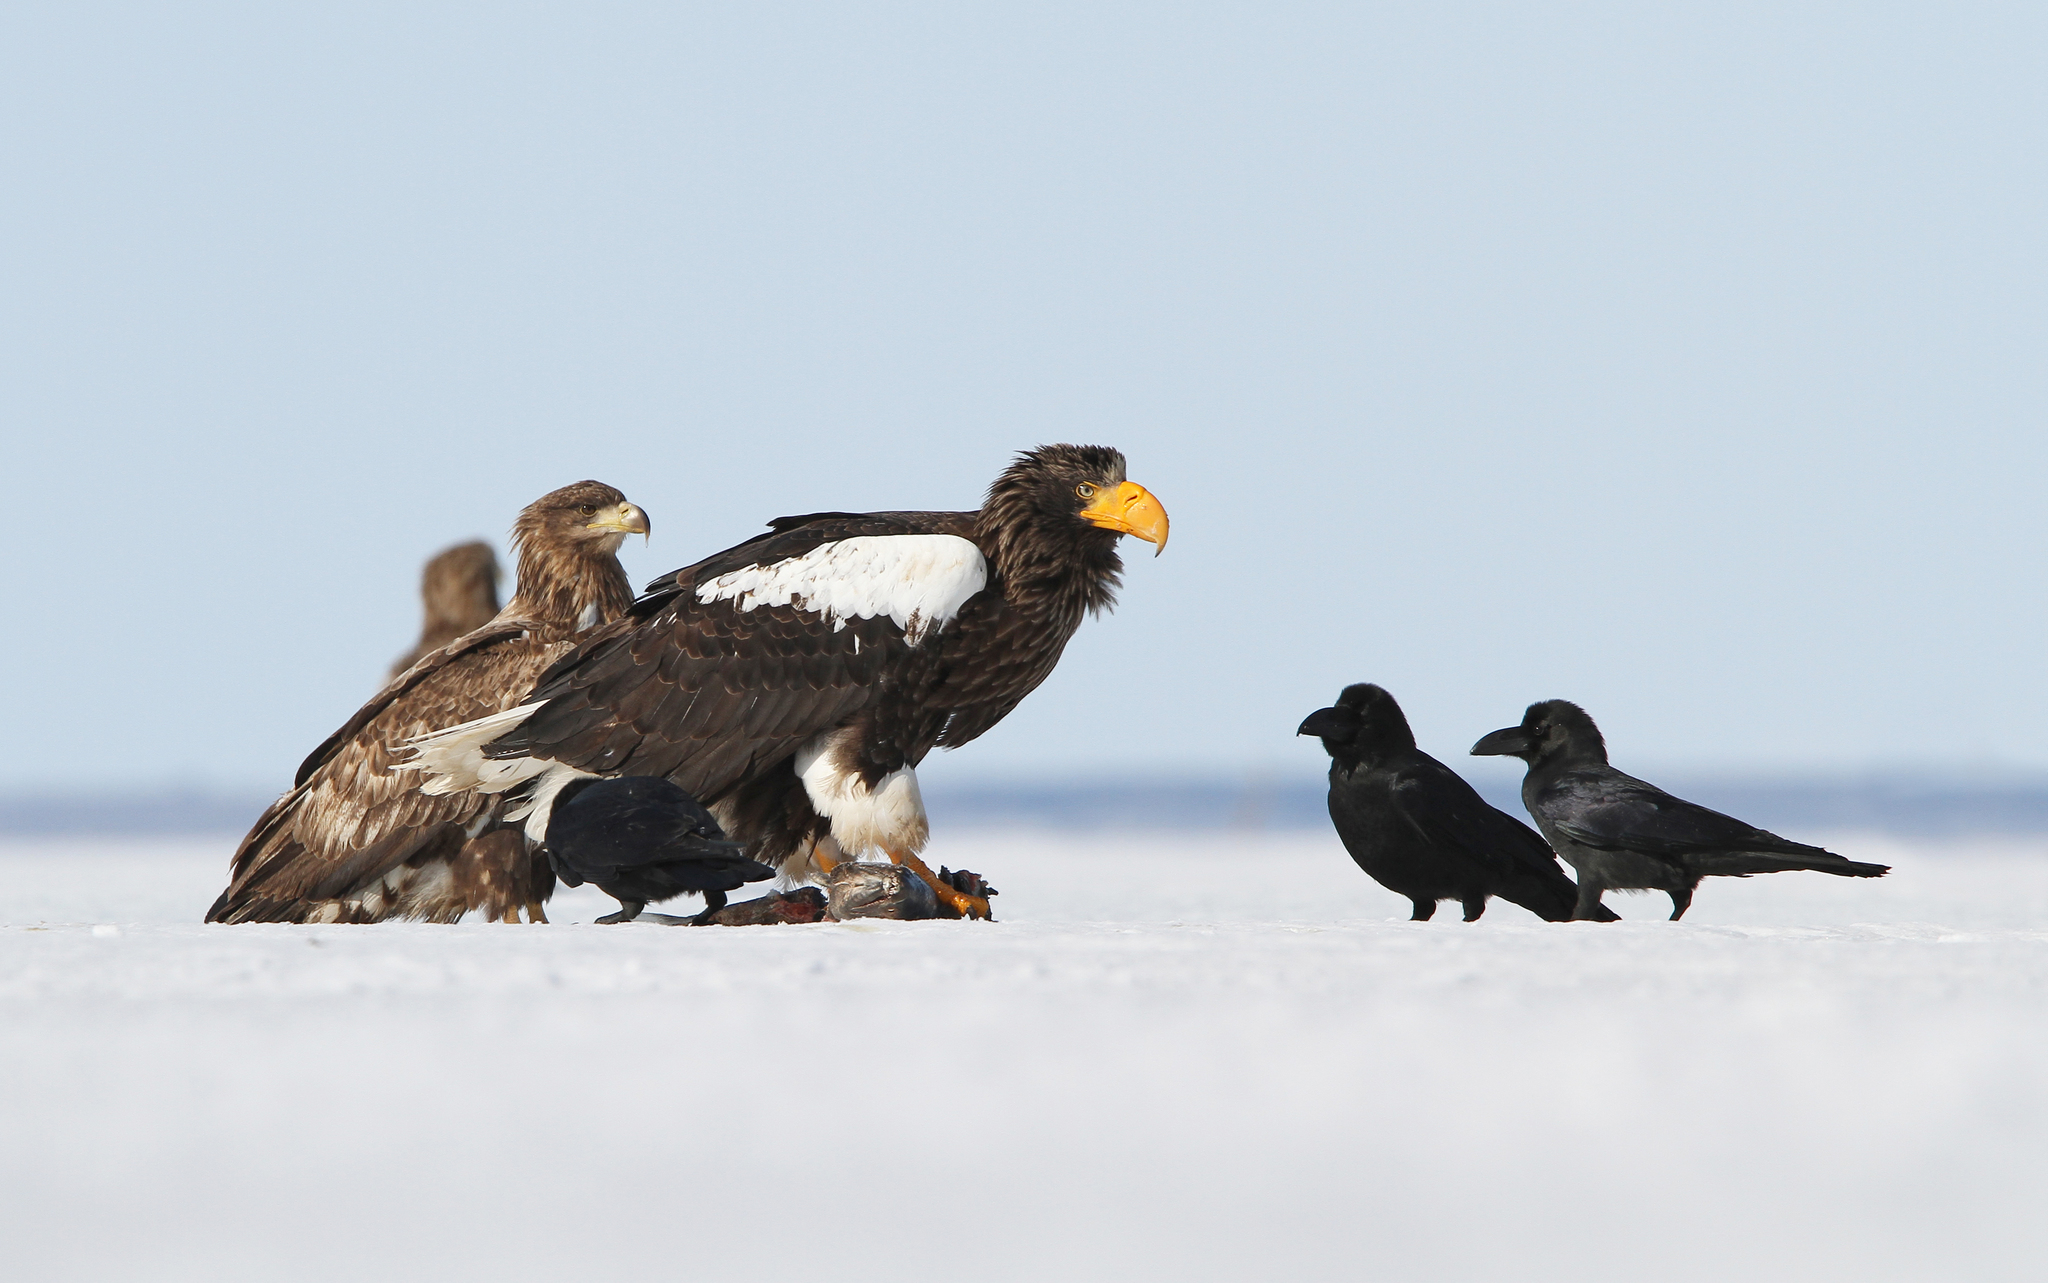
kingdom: Animalia
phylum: Chordata
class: Aves
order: Accipitriformes
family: Accipitridae
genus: Haliaeetus
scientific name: Haliaeetus pelagicus
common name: Steller's sea eagle
